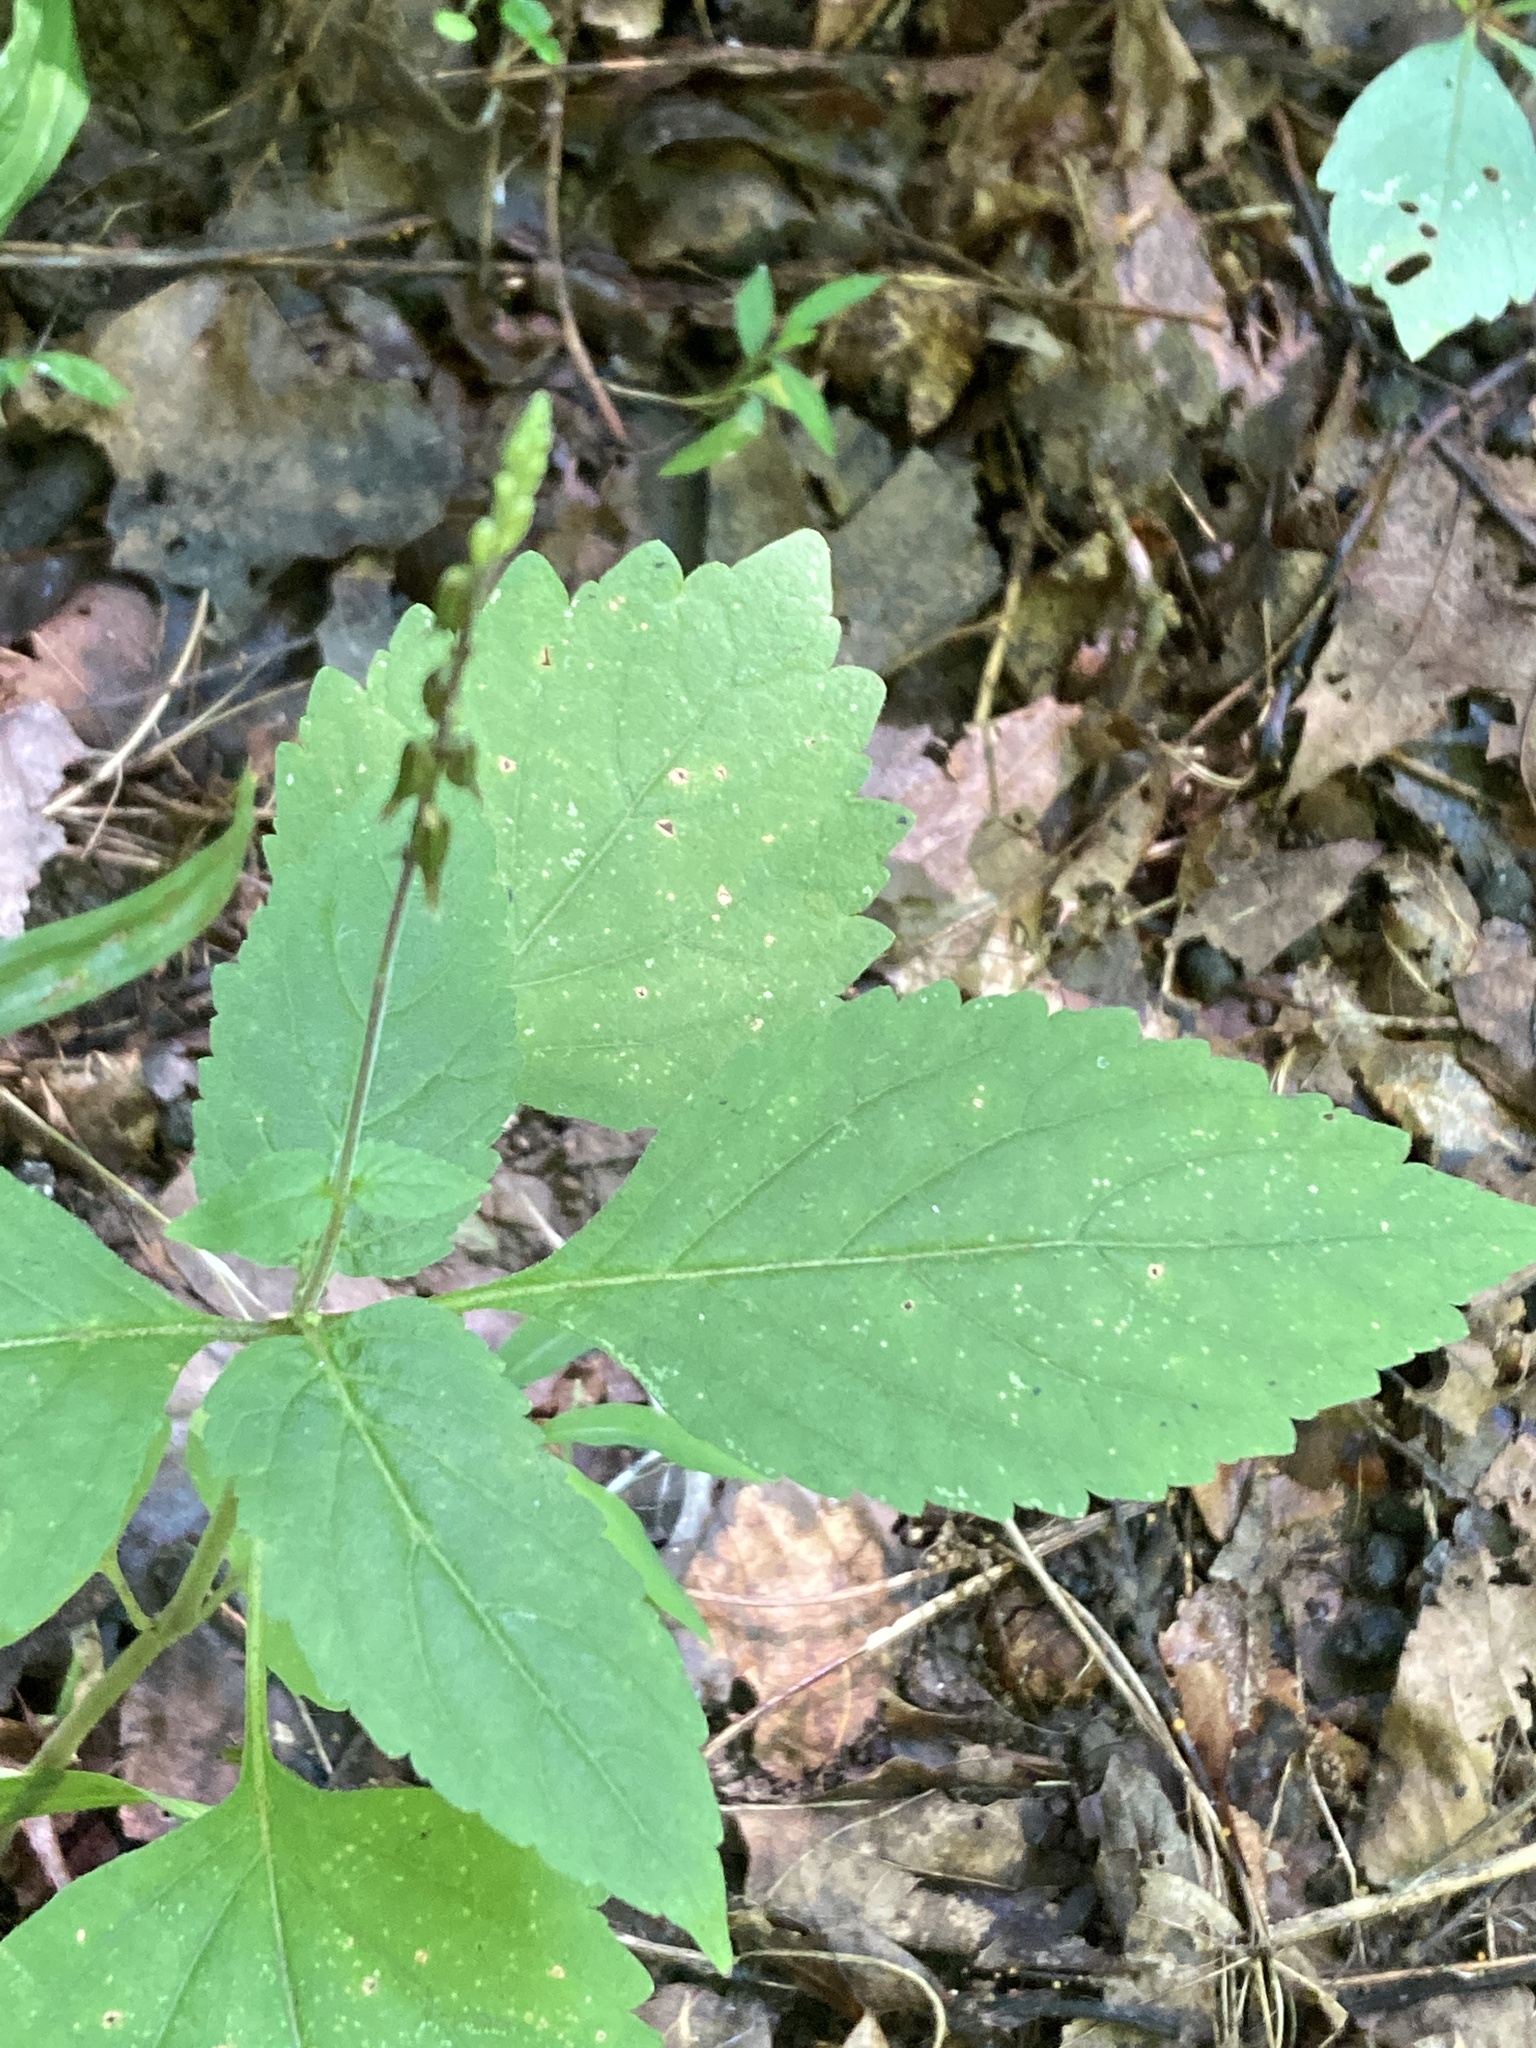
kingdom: Plantae
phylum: Tracheophyta
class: Magnoliopsida
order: Lamiales
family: Phrymaceae
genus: Phryma
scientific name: Phryma leptostachya
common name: American lopseed
